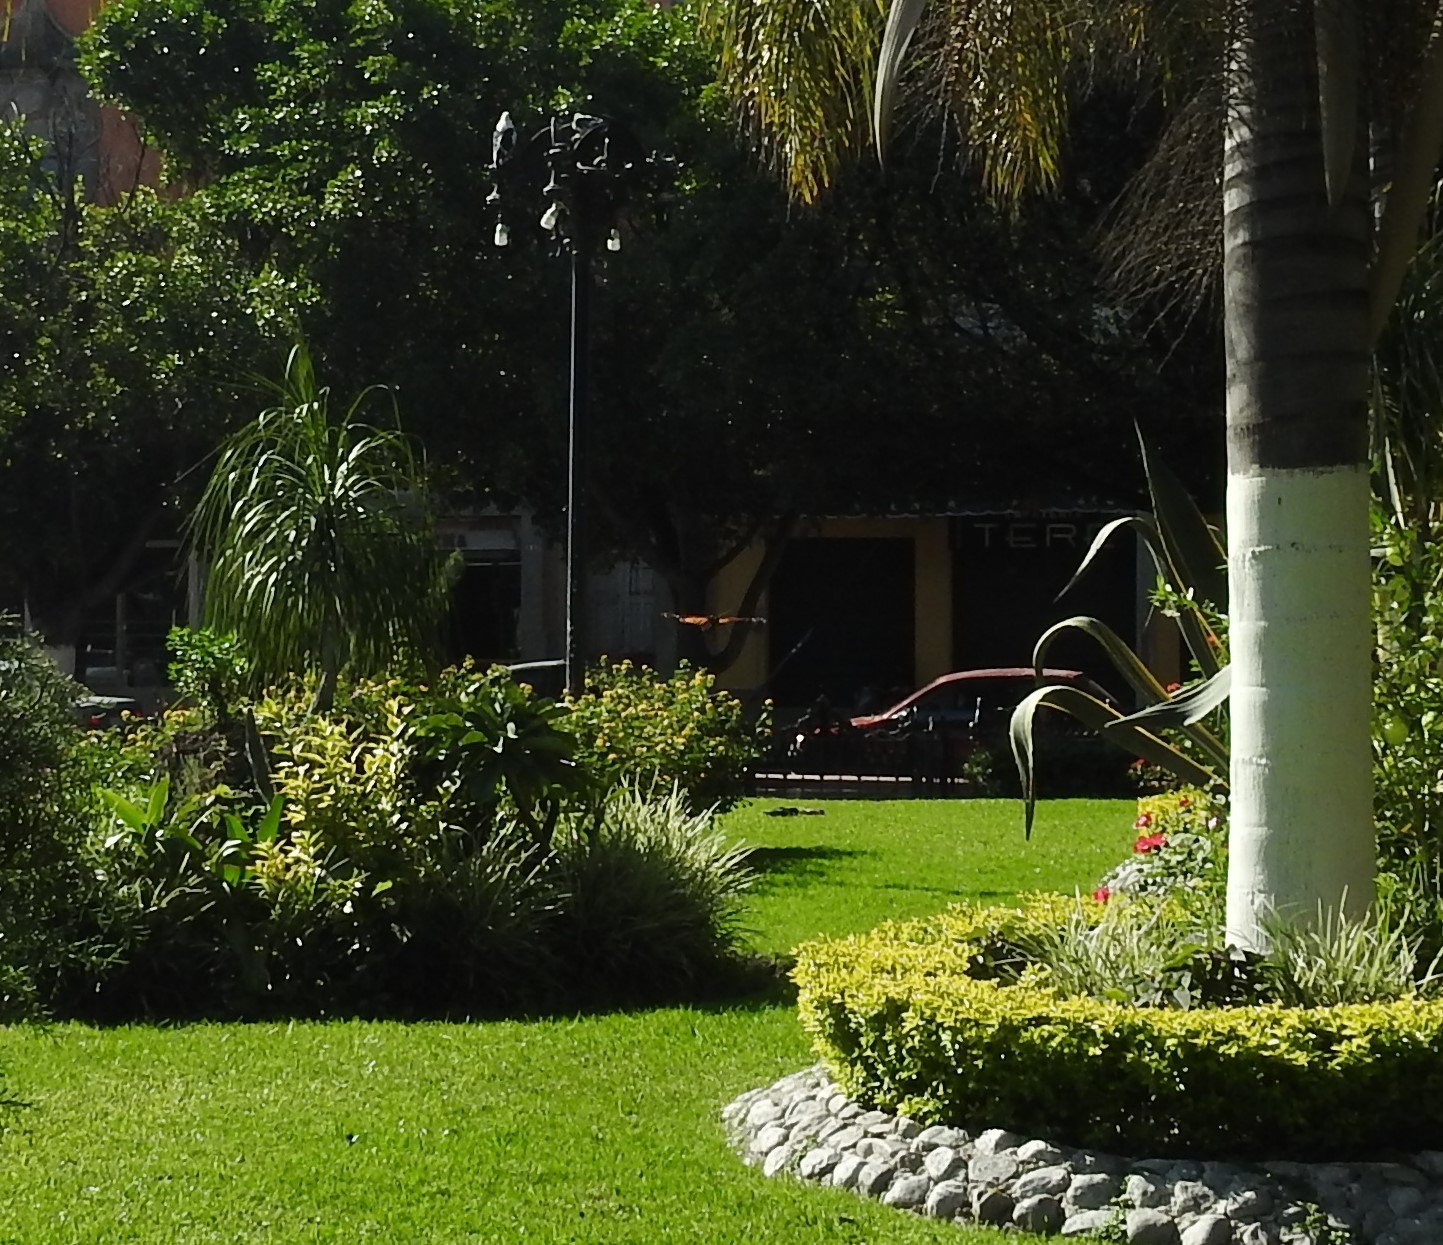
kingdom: Animalia
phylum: Arthropoda
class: Insecta
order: Lepidoptera
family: Nymphalidae
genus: Danaus
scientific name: Danaus plexippus
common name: Monarch
